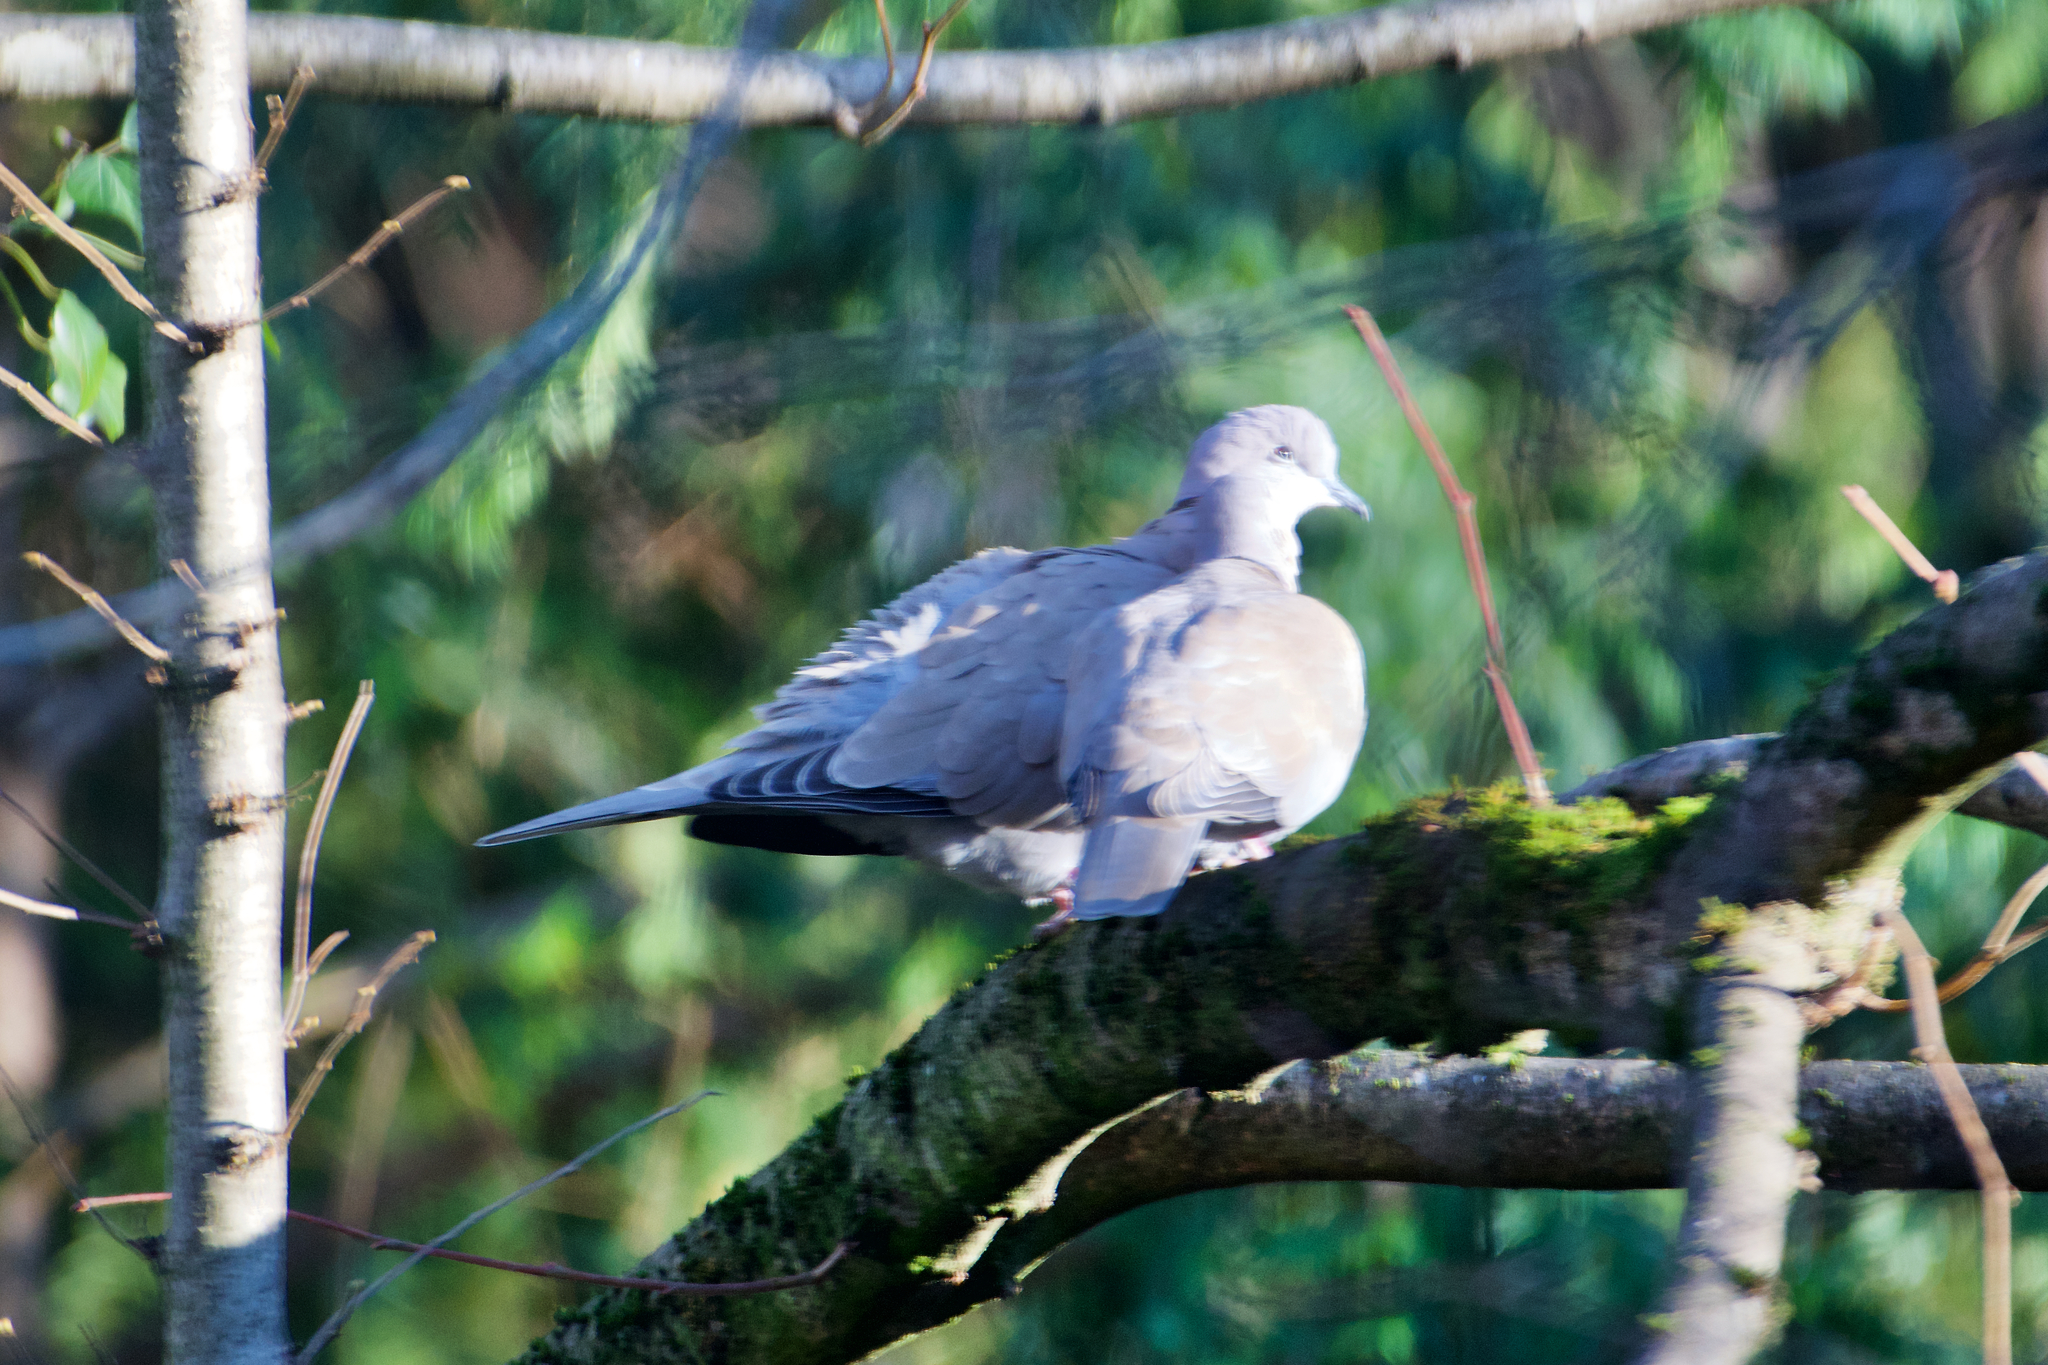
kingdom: Animalia
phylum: Chordata
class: Aves
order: Columbiformes
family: Columbidae
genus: Streptopelia
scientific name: Streptopelia decaocto
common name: Eurasian collared dove
